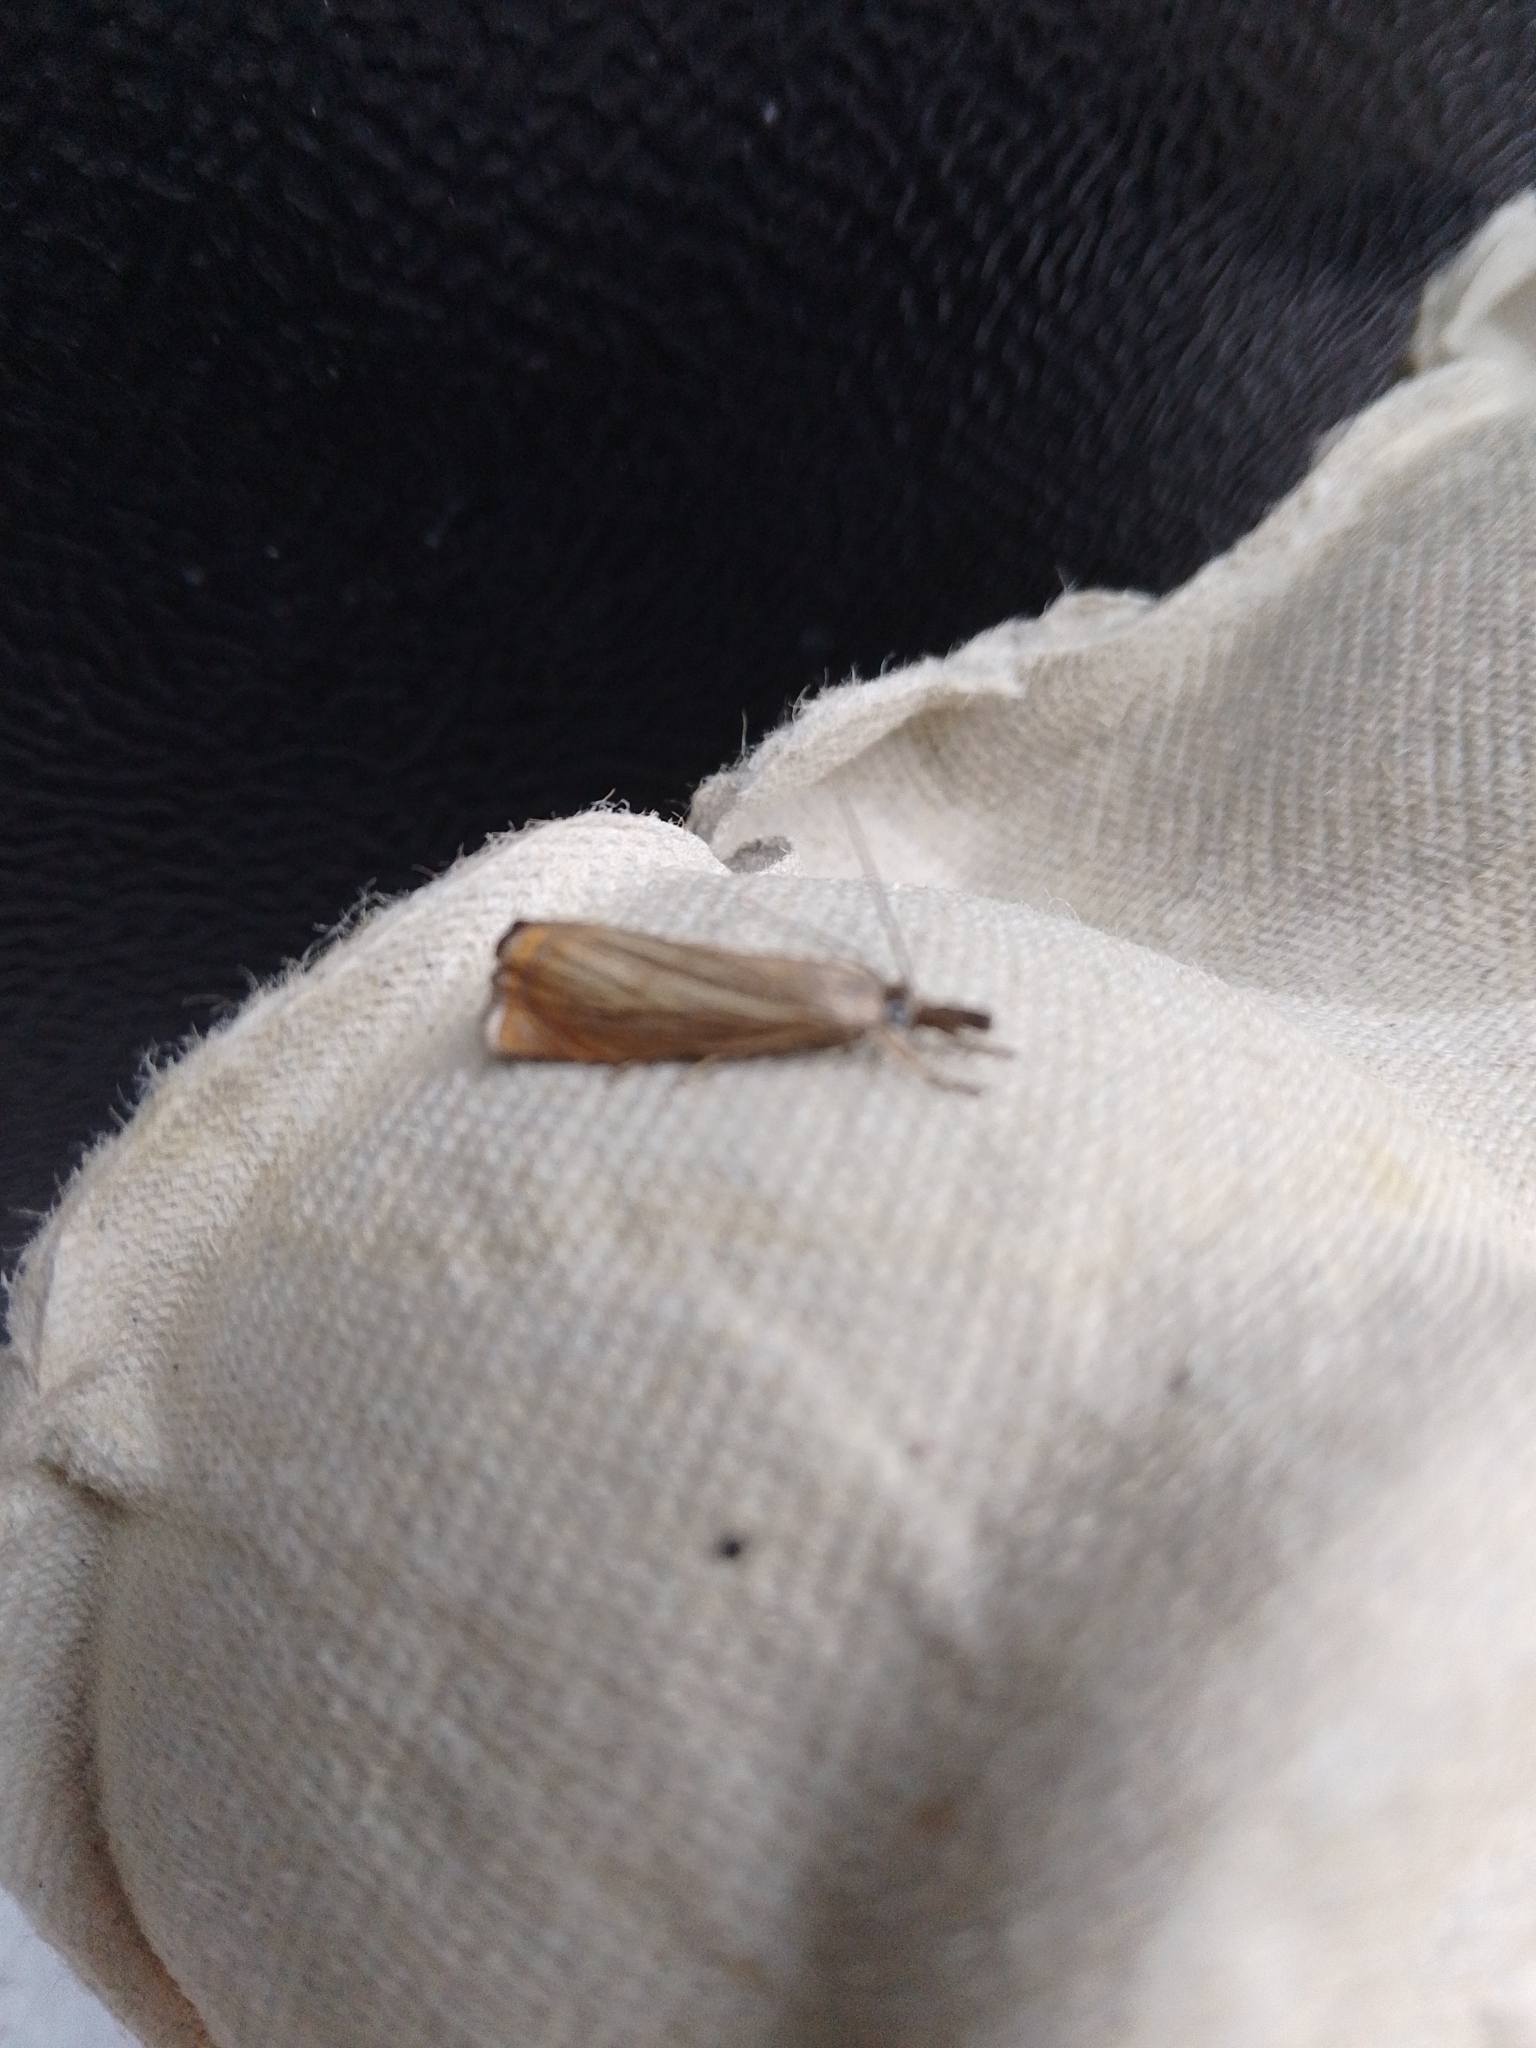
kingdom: Animalia
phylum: Arthropoda
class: Insecta
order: Lepidoptera
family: Crambidae
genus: Chrysoteuchia
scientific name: Chrysoteuchia culmella
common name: Garden grass-veneer
